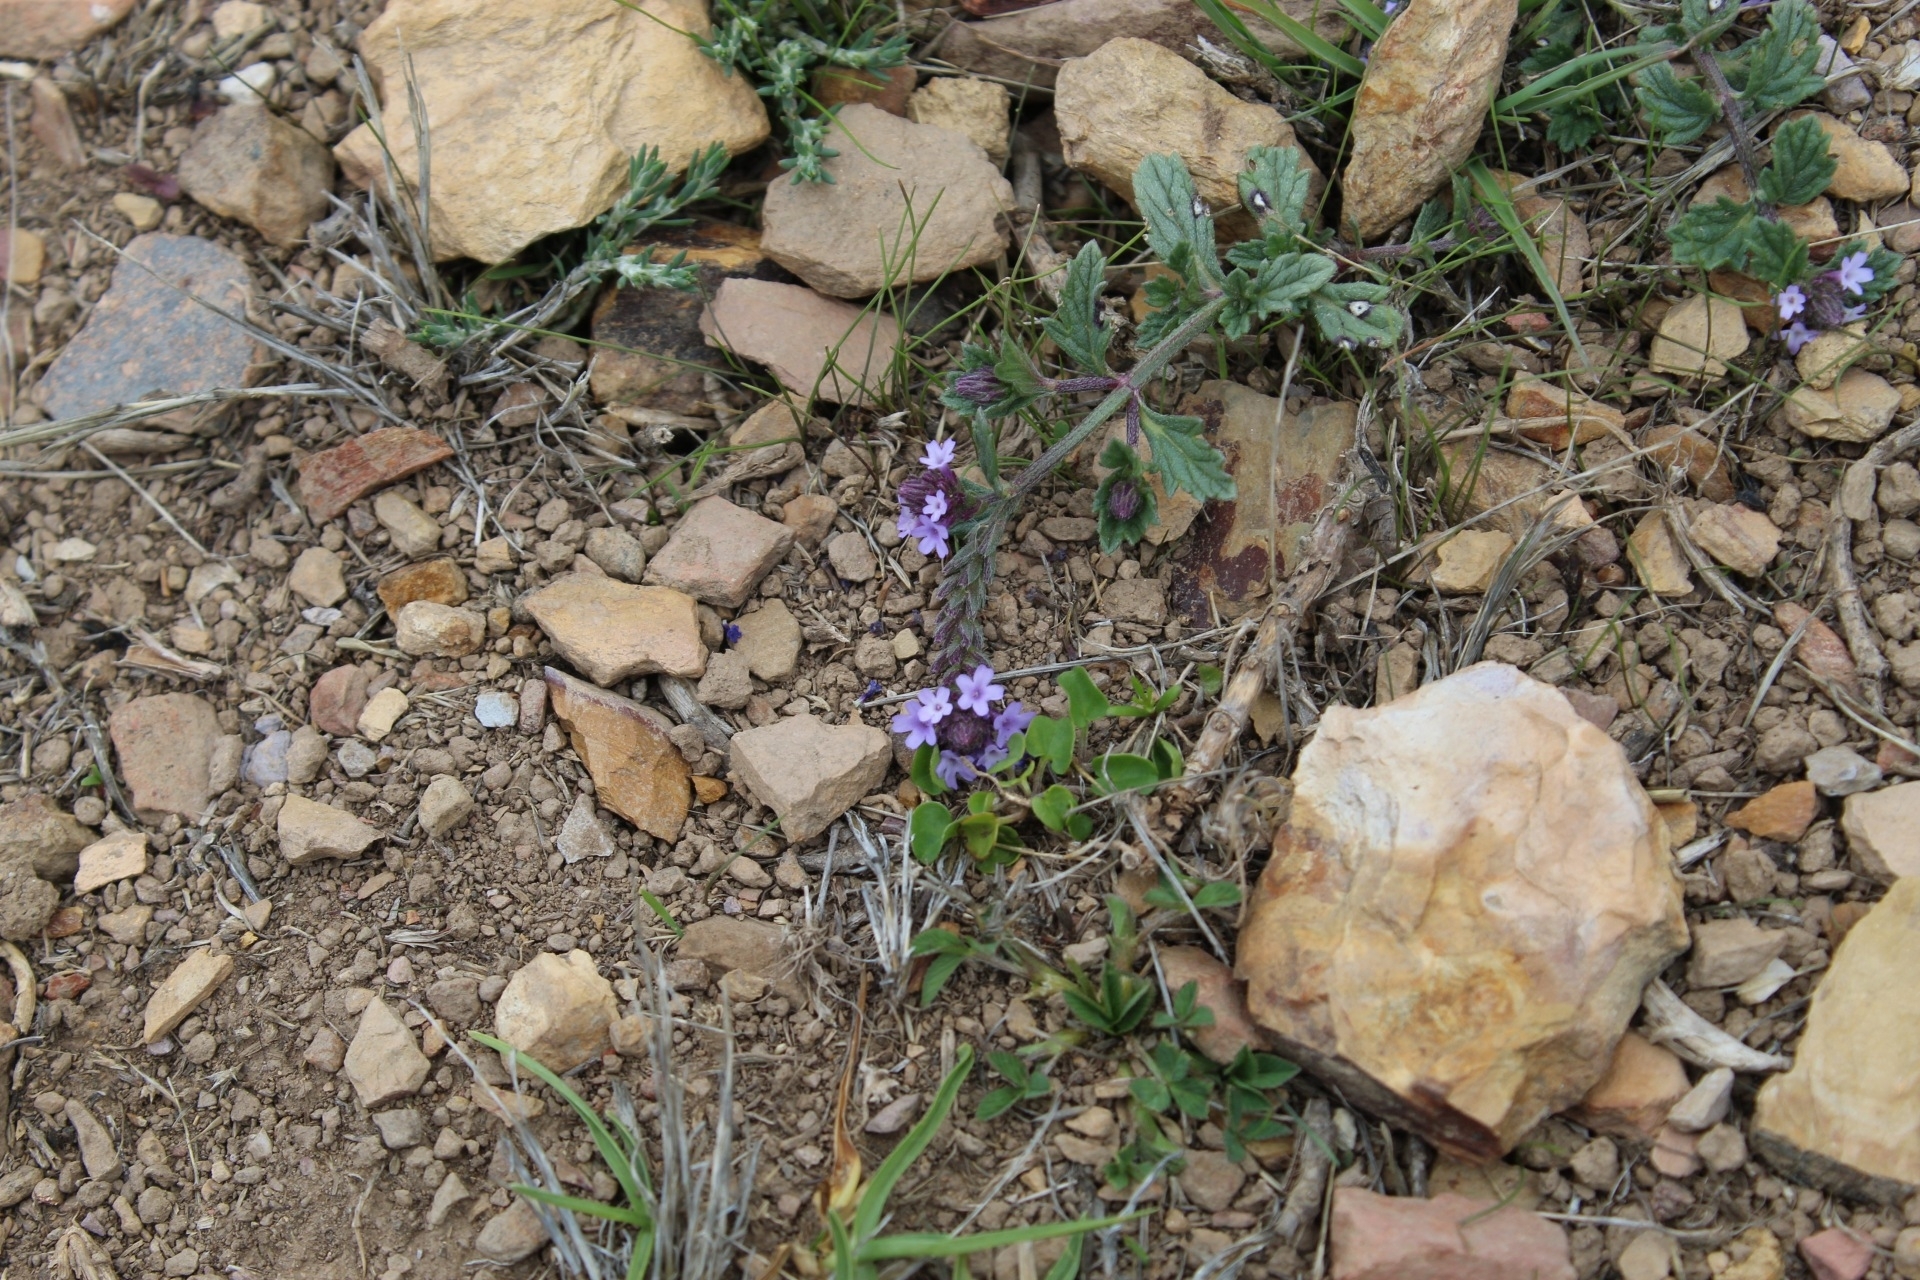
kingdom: Plantae
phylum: Tracheophyta
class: Magnoliopsida
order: Lamiales
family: Verbenaceae
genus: Verbena
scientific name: Verbena glabrata
